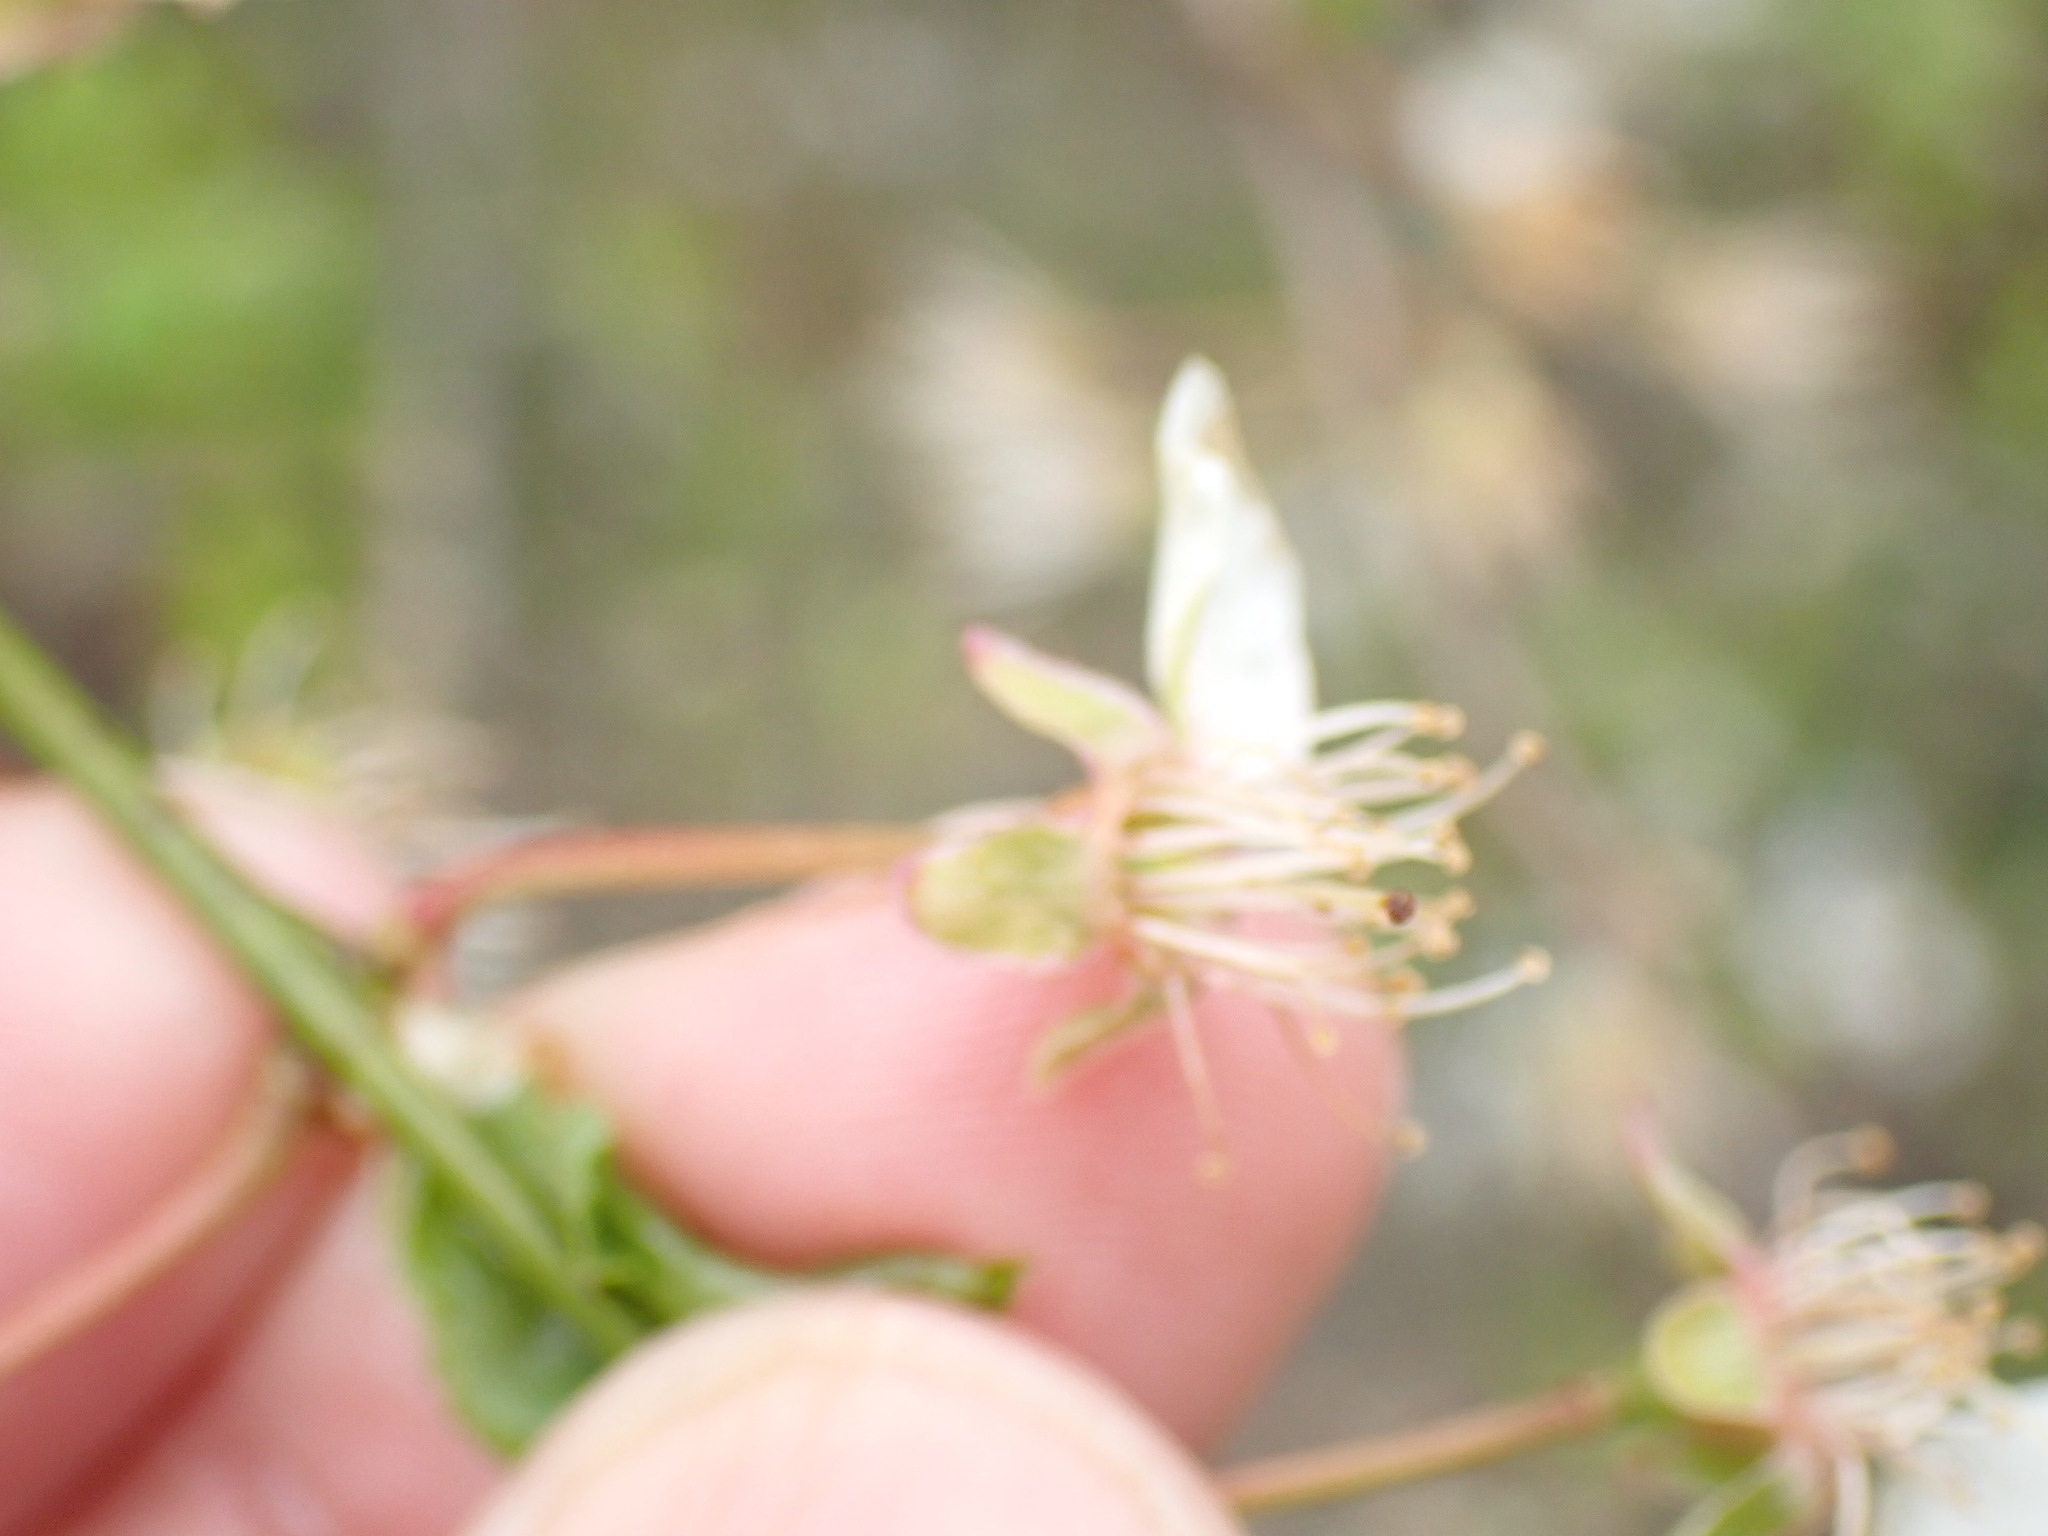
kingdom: Plantae
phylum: Tracheophyta
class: Magnoliopsida
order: Rosales
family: Rosaceae
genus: Prunus
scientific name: Prunus cerasifera
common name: Cherry plum
